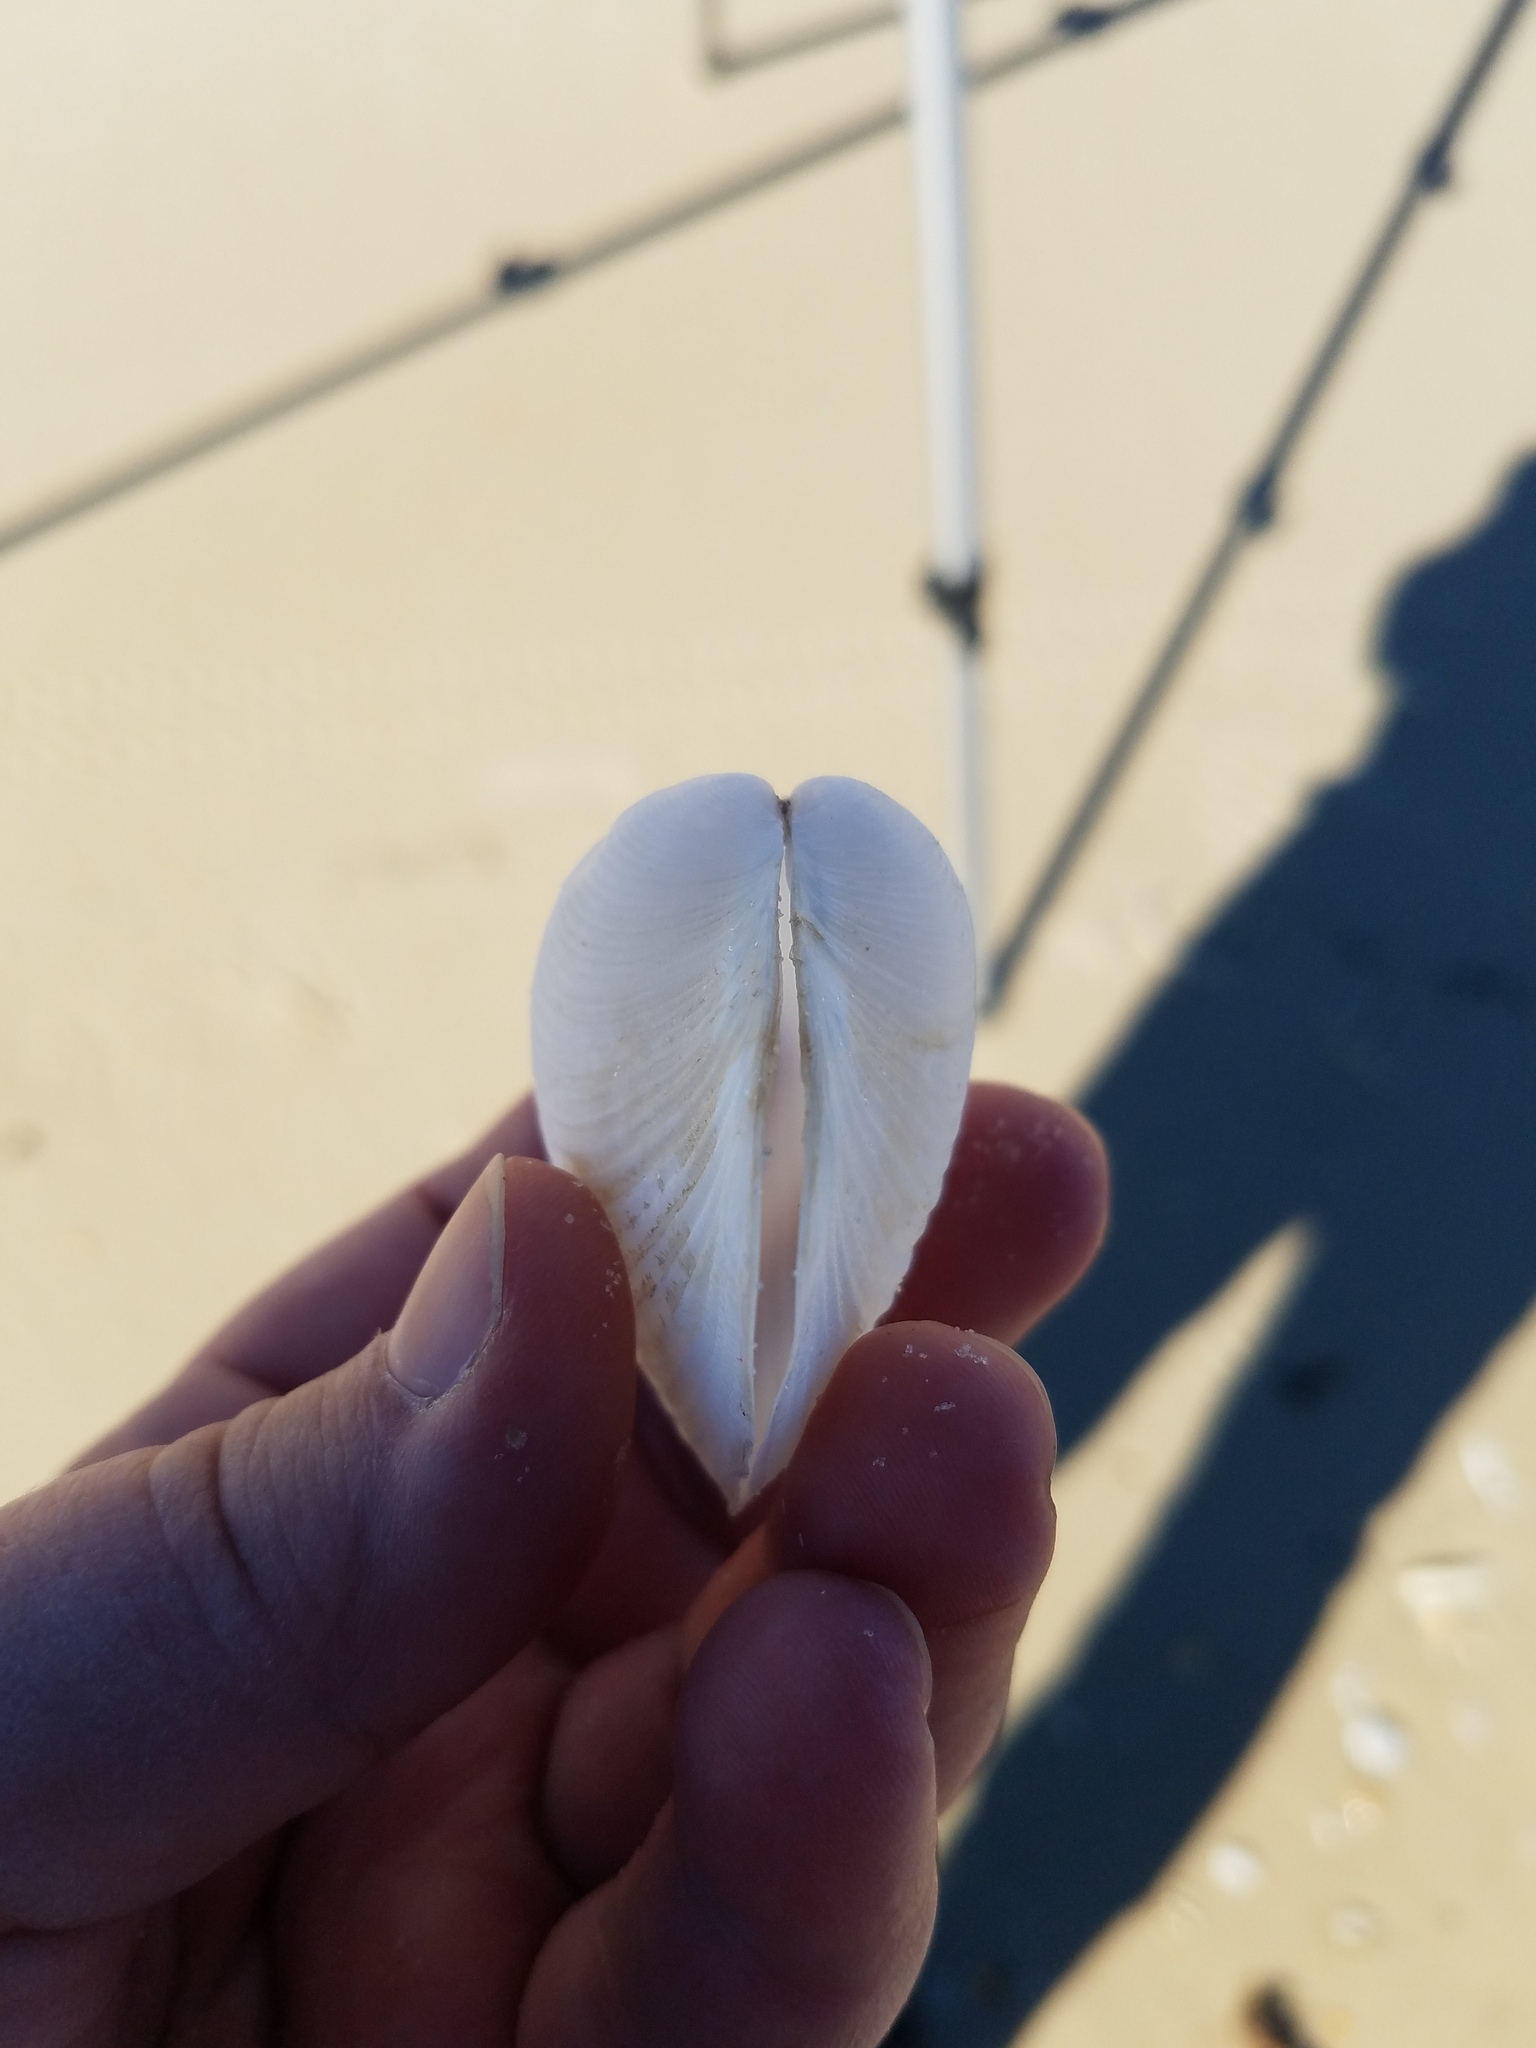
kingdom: Animalia
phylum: Mollusca
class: Bivalvia
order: Venerida
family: Anatinellidae
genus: Raeta
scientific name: Raeta plicatella
